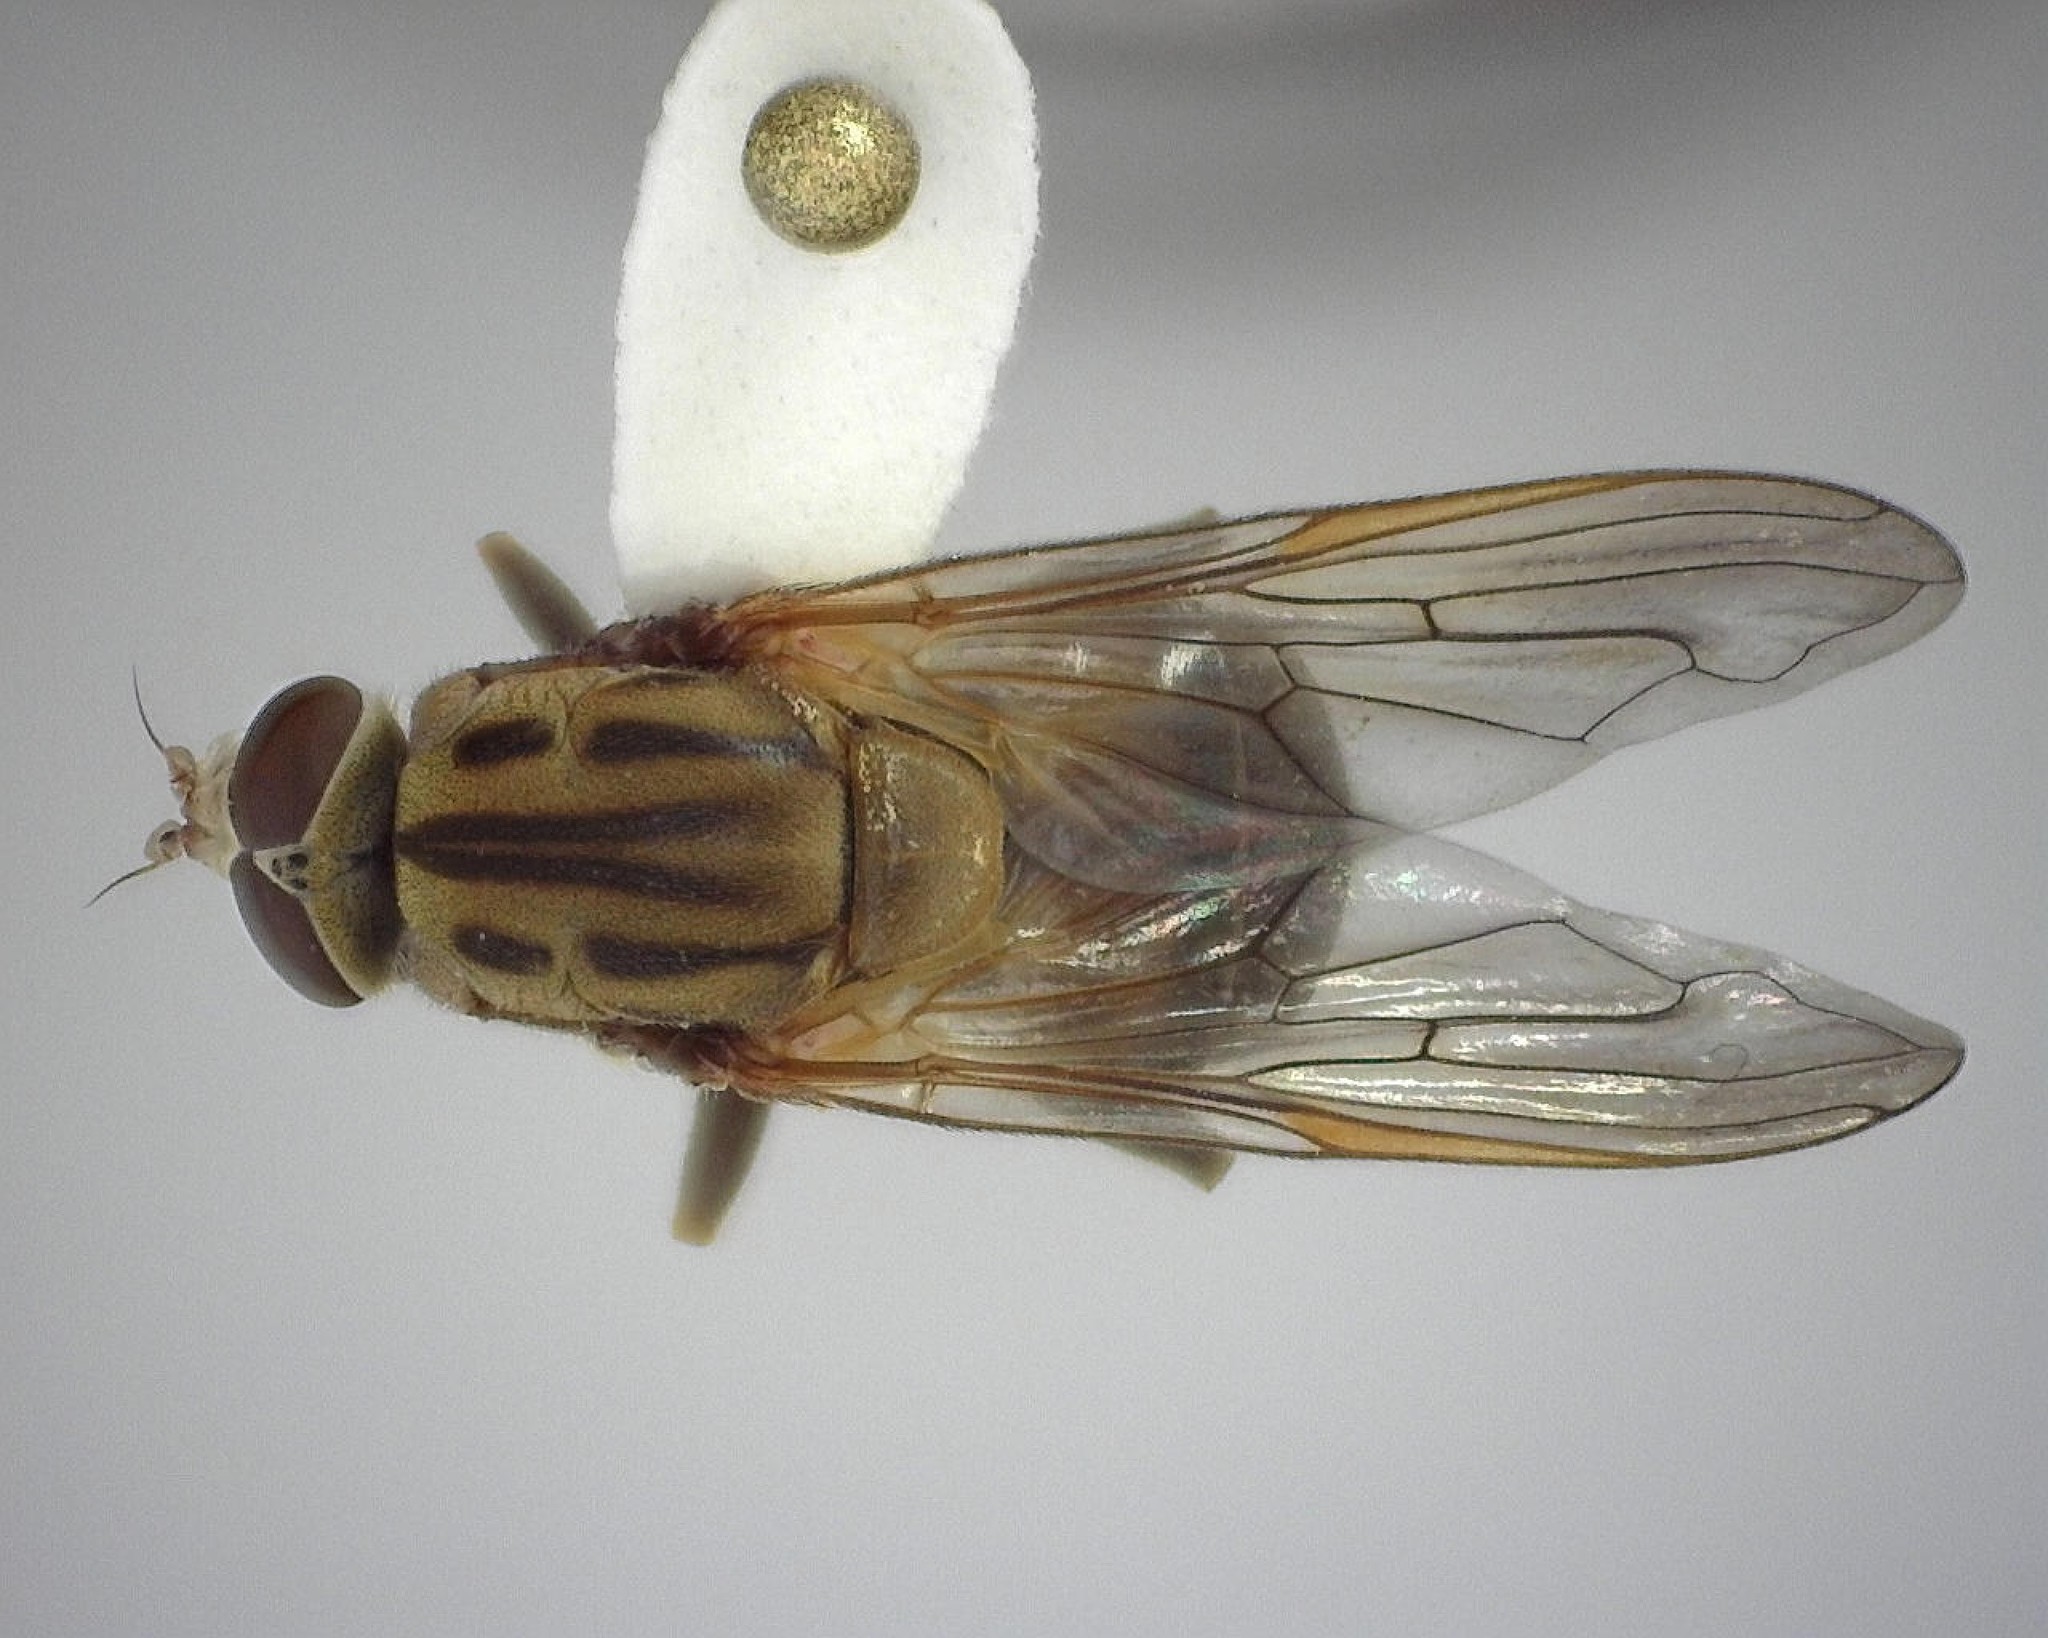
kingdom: Animalia
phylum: Arthropoda
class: Insecta
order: Diptera
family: Syrphidae
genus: Brachyopa
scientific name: Brachyopa vacua
